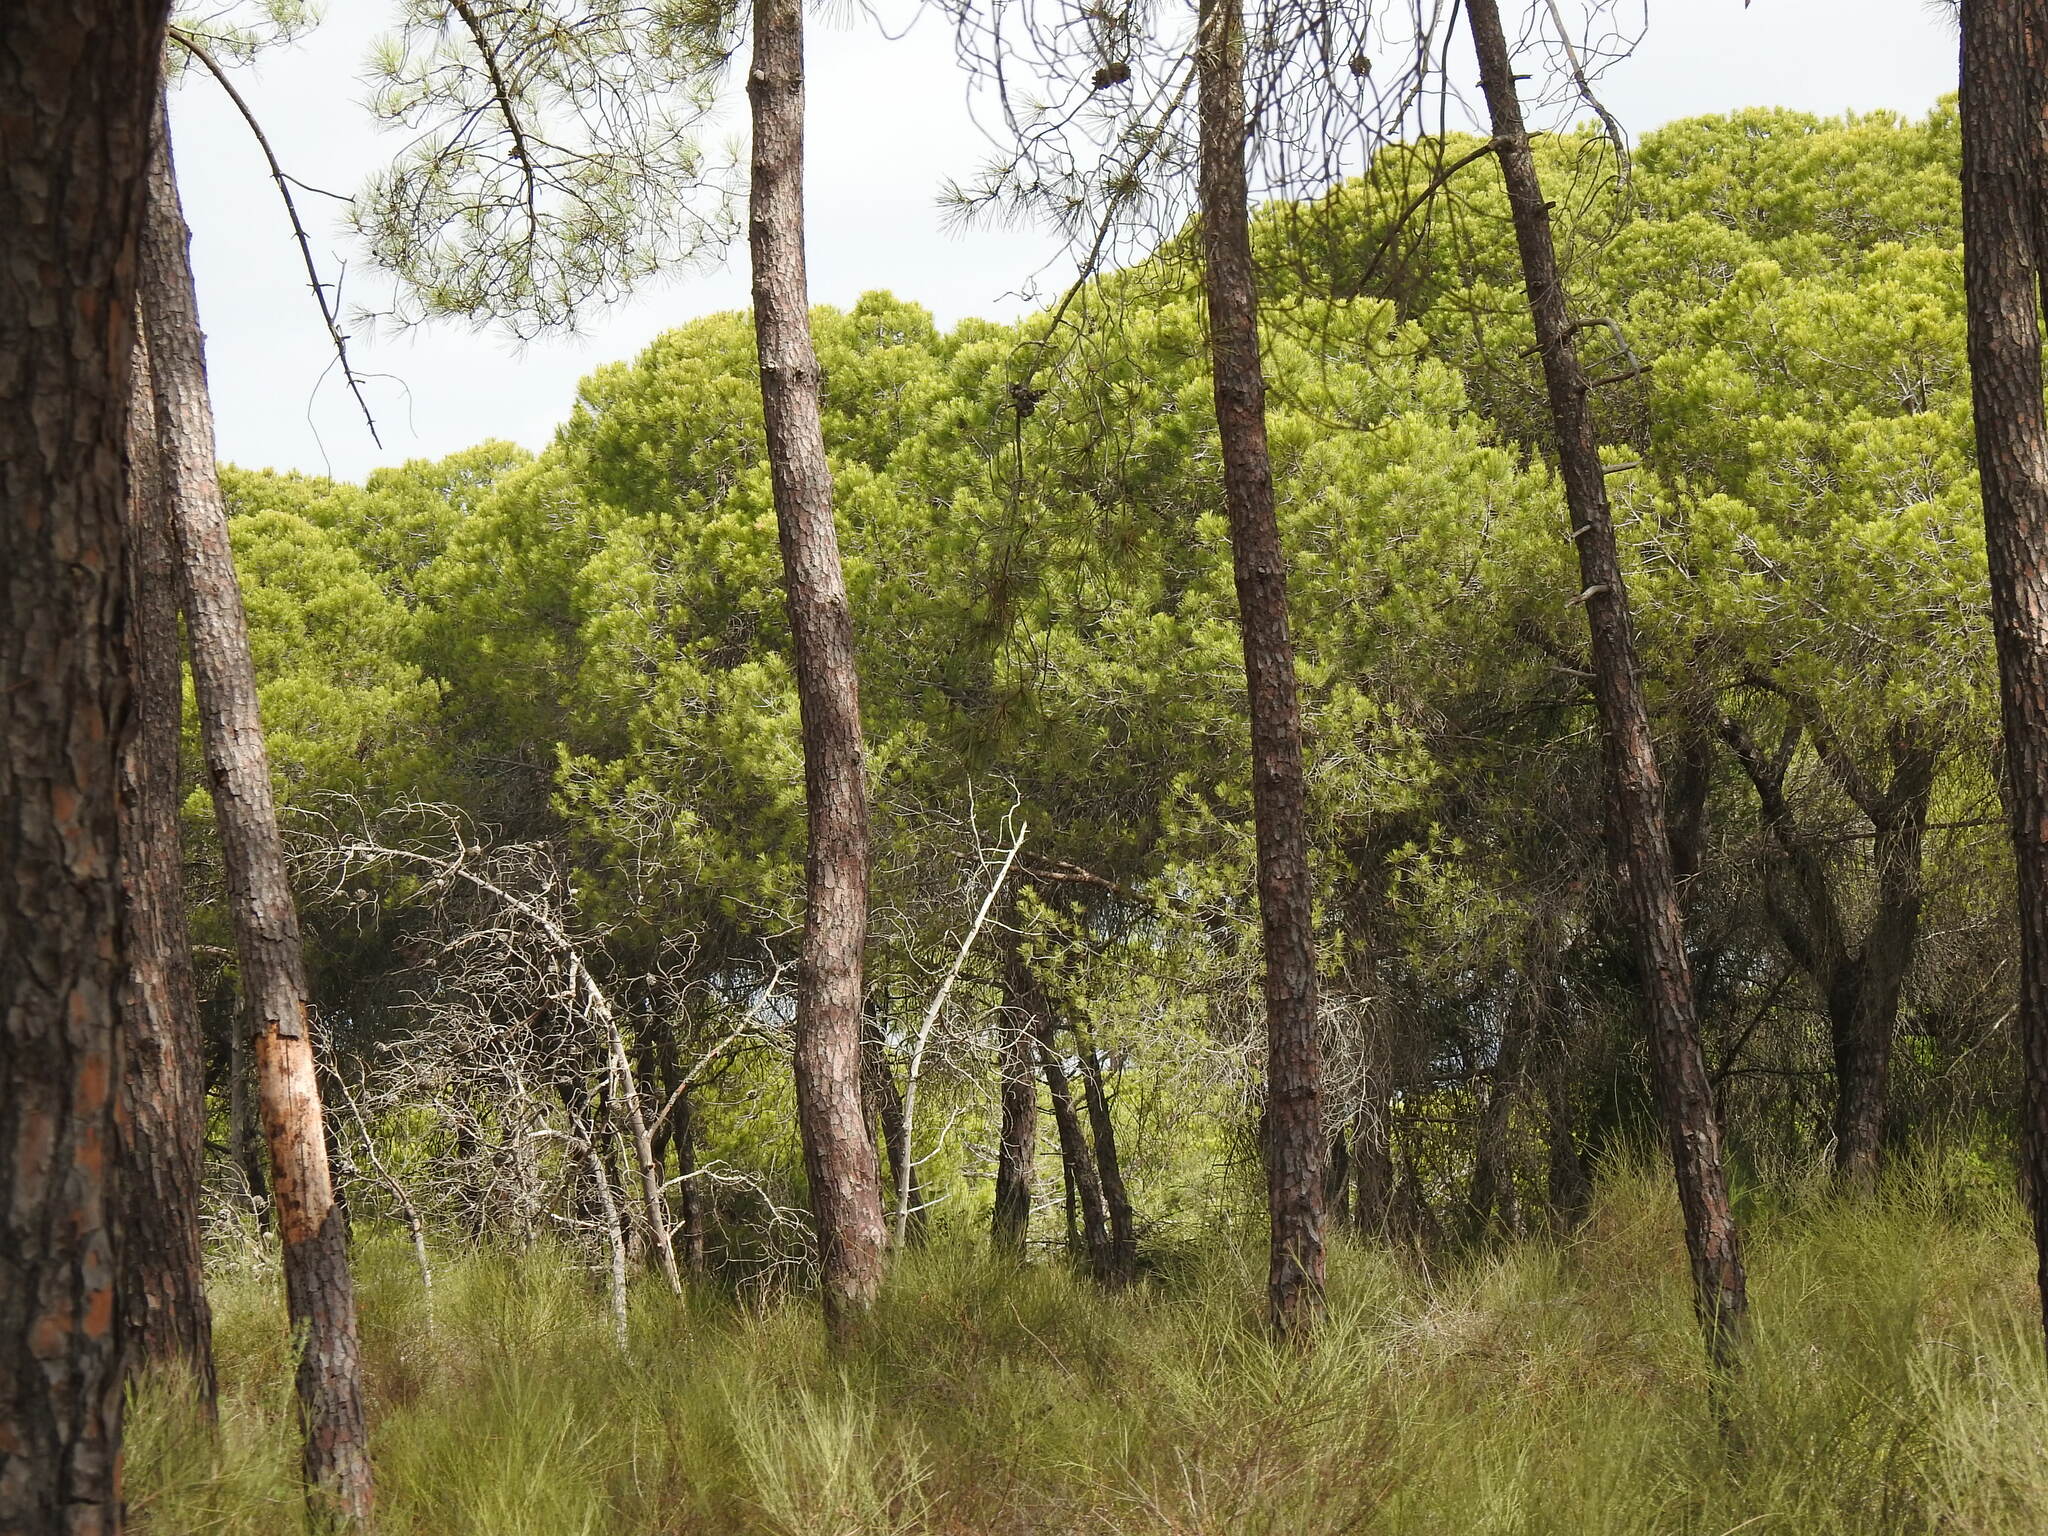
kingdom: Plantae
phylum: Tracheophyta
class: Pinopsida
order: Pinales
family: Pinaceae
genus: Pinus
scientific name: Pinus pinea
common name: Italian stone pine
